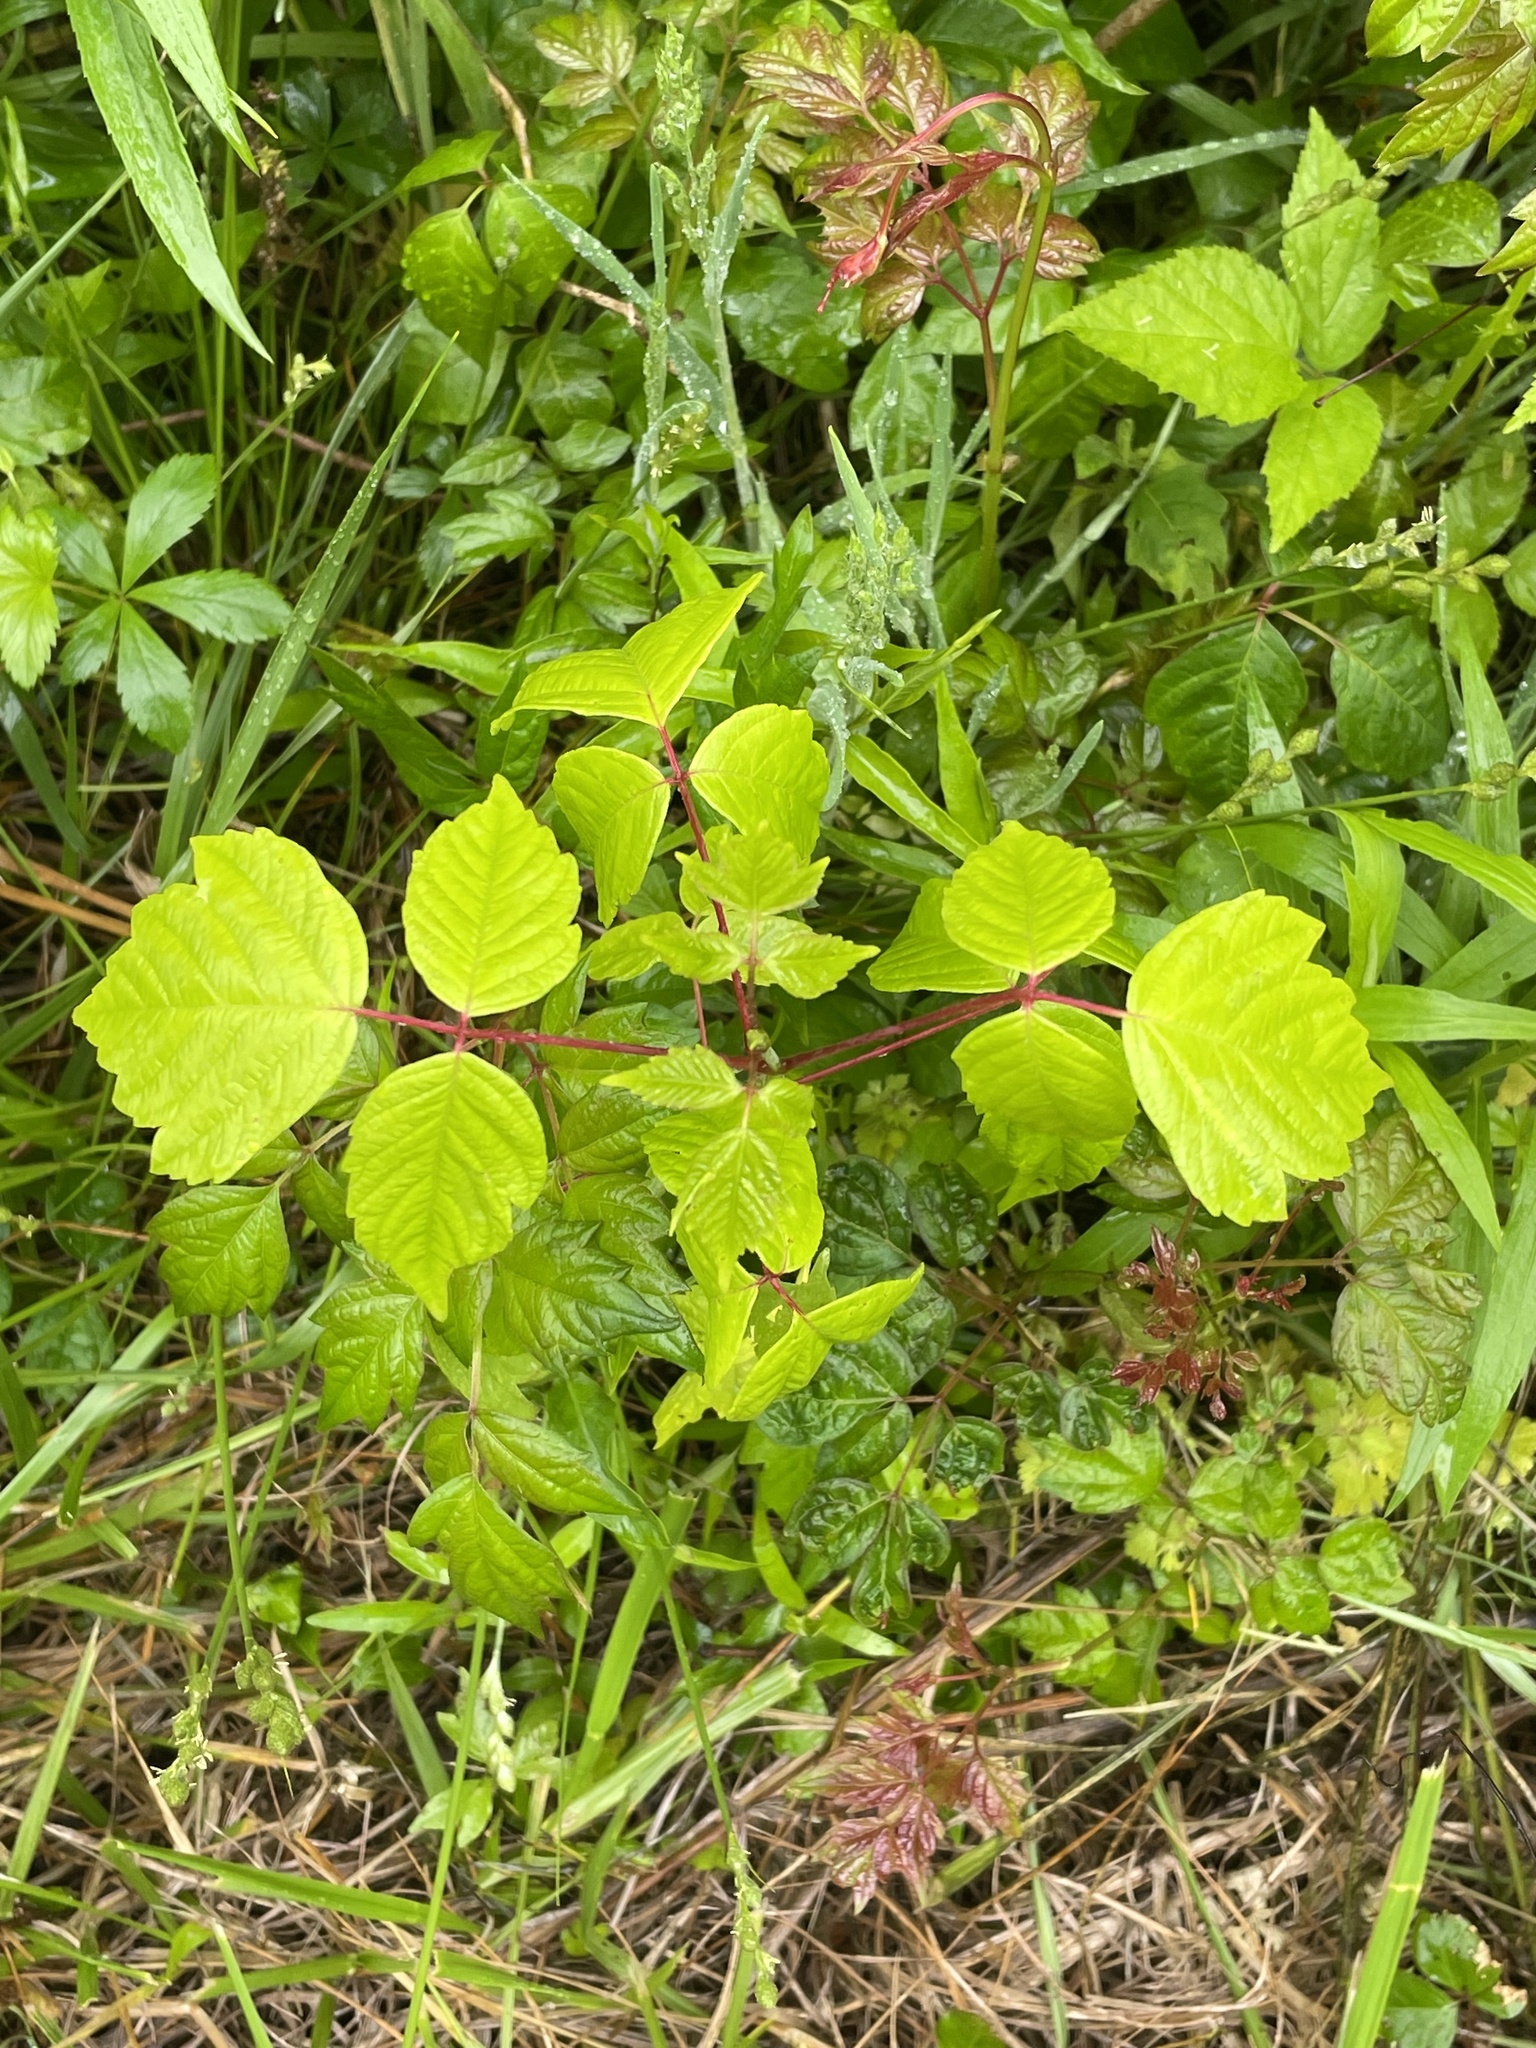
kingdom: Plantae
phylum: Tracheophyta
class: Magnoliopsida
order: Sapindales
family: Sapindaceae
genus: Acer
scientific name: Acer negundo
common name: Ashleaf maple
